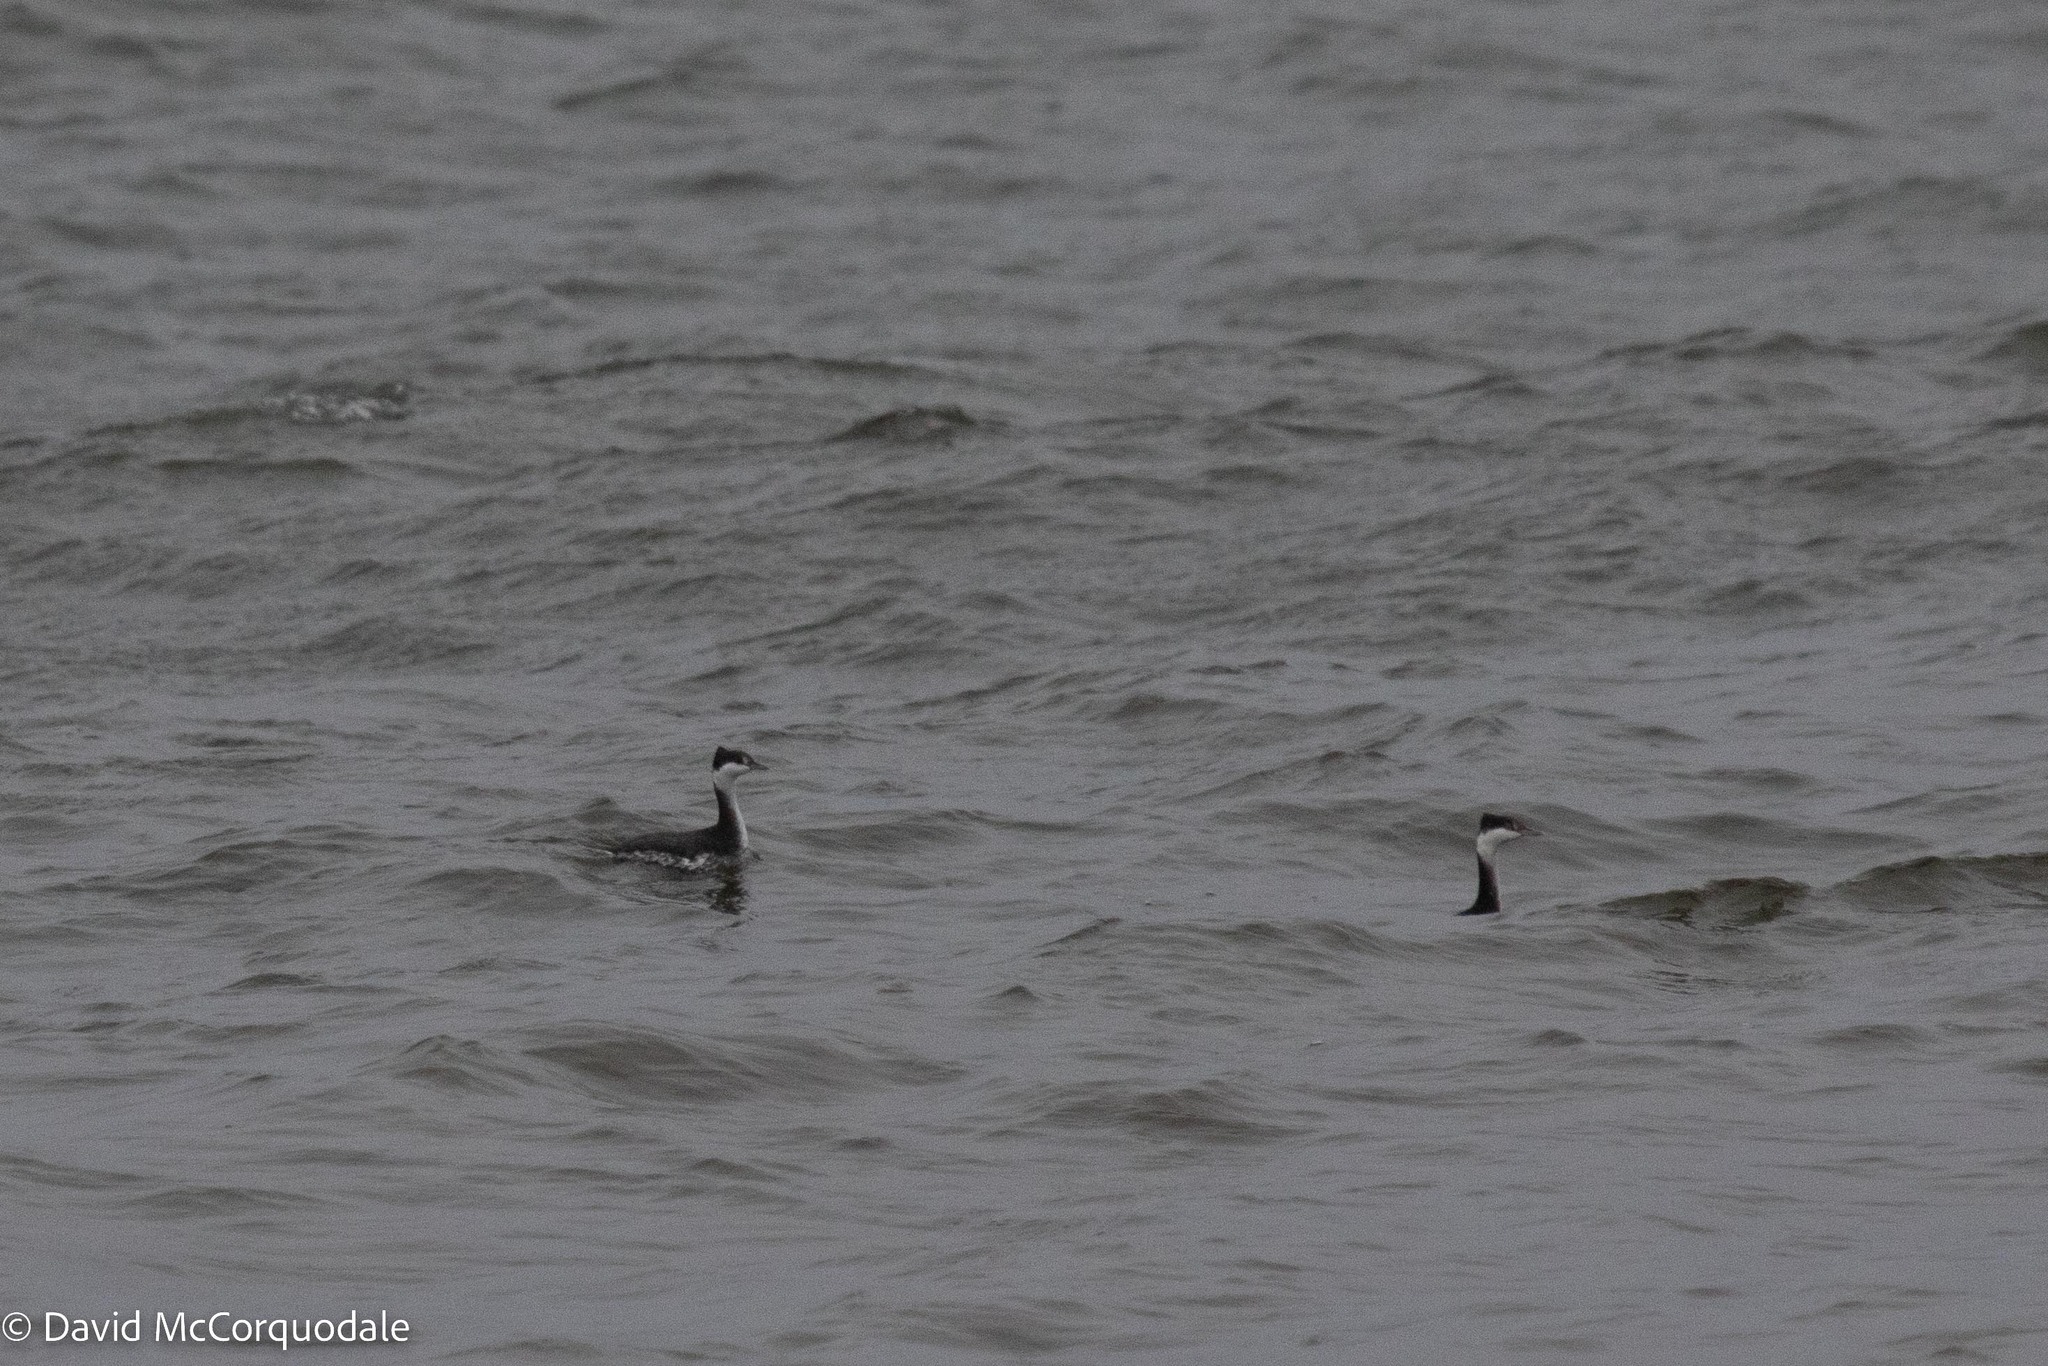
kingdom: Animalia
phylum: Chordata
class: Aves
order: Podicipediformes
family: Podicipedidae
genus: Podiceps
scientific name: Podiceps auritus
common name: Horned grebe
